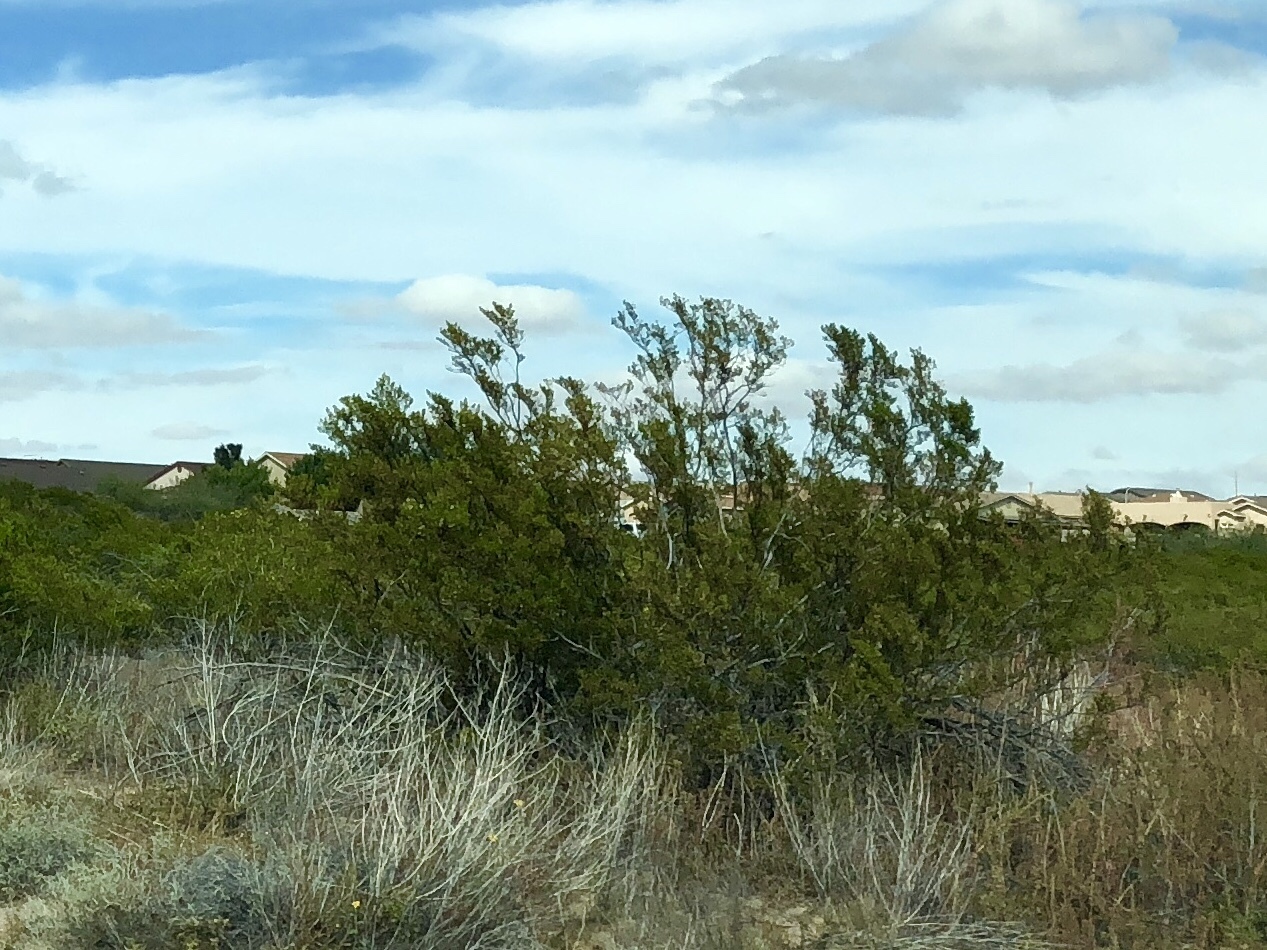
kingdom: Plantae
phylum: Tracheophyta
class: Magnoliopsida
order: Zygophyllales
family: Zygophyllaceae
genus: Larrea
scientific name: Larrea tridentata
